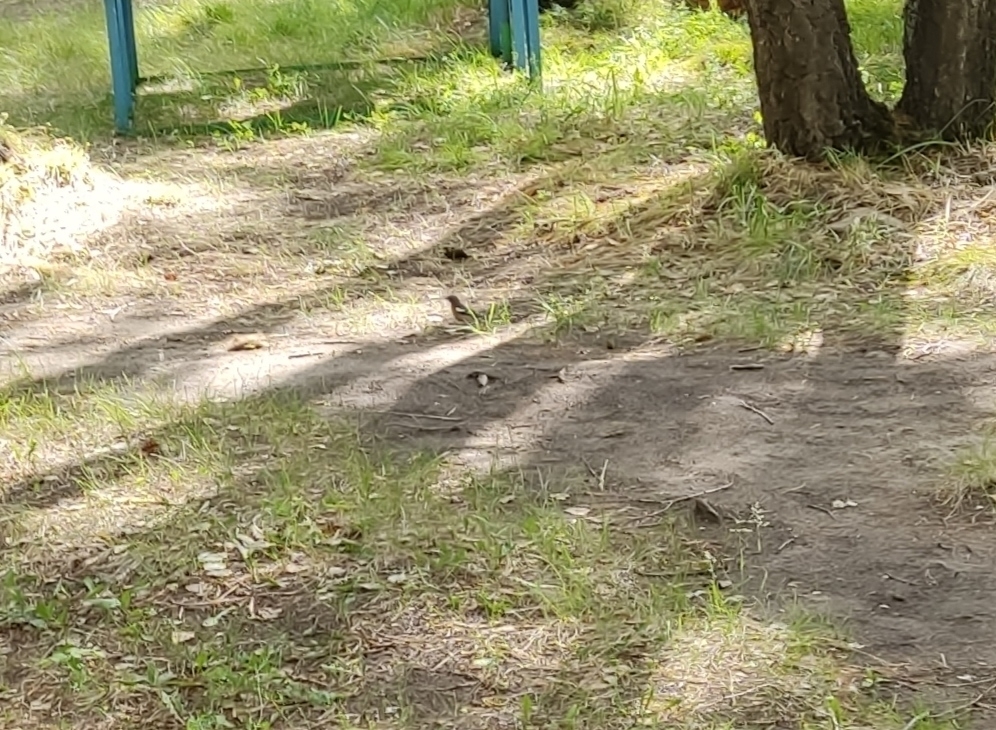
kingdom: Animalia
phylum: Chordata
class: Aves
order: Passeriformes
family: Fringillidae
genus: Fringilla
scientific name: Fringilla coelebs
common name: Common chaffinch
